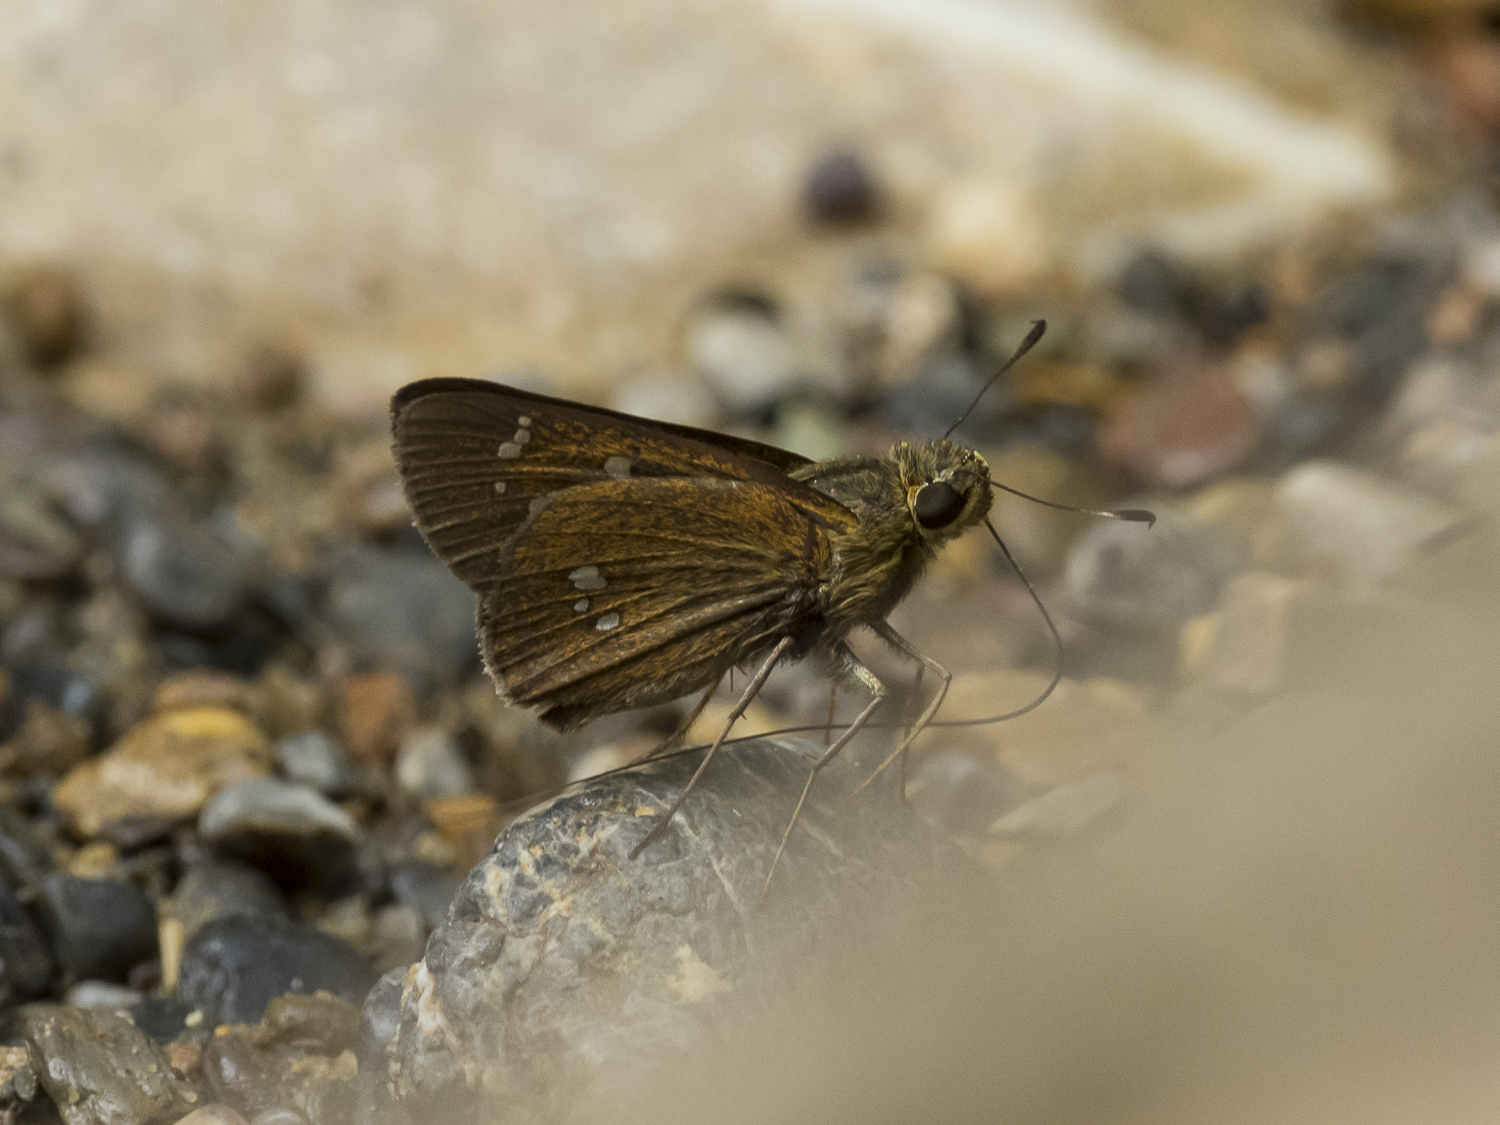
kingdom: Animalia
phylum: Arthropoda
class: Insecta
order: Lepidoptera
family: Hesperiidae
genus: Pelopidas
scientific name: Pelopidas mathias
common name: Black-branded swift
